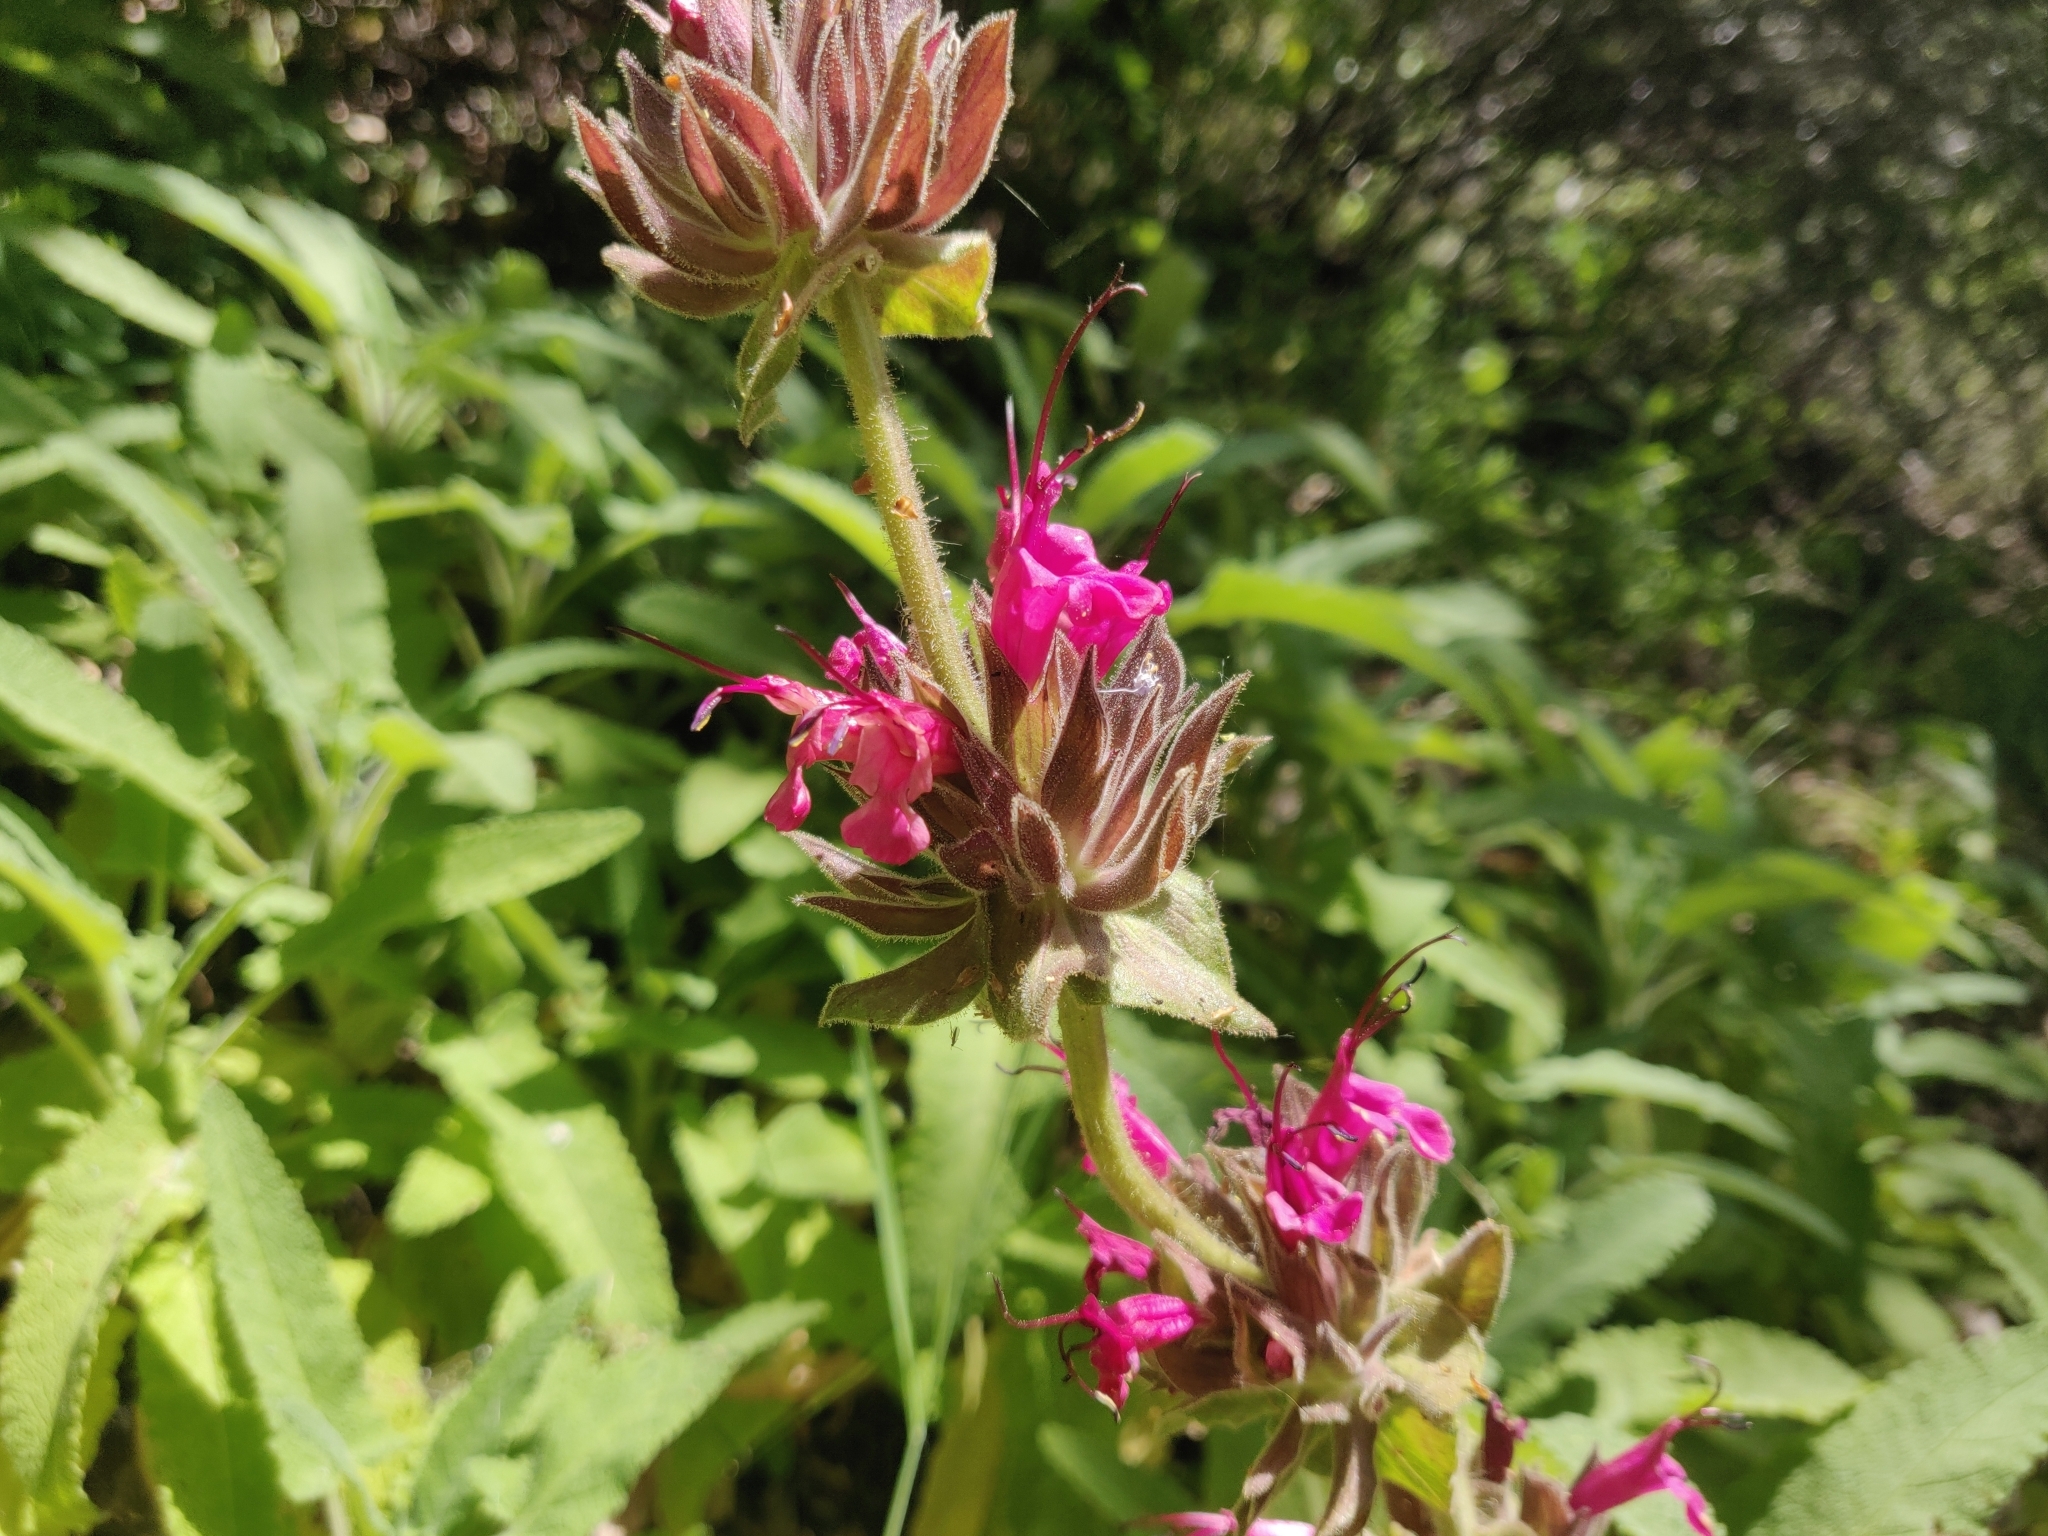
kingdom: Plantae
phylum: Tracheophyta
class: Magnoliopsida
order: Lamiales
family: Lamiaceae
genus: Salvia
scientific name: Salvia spathacea
